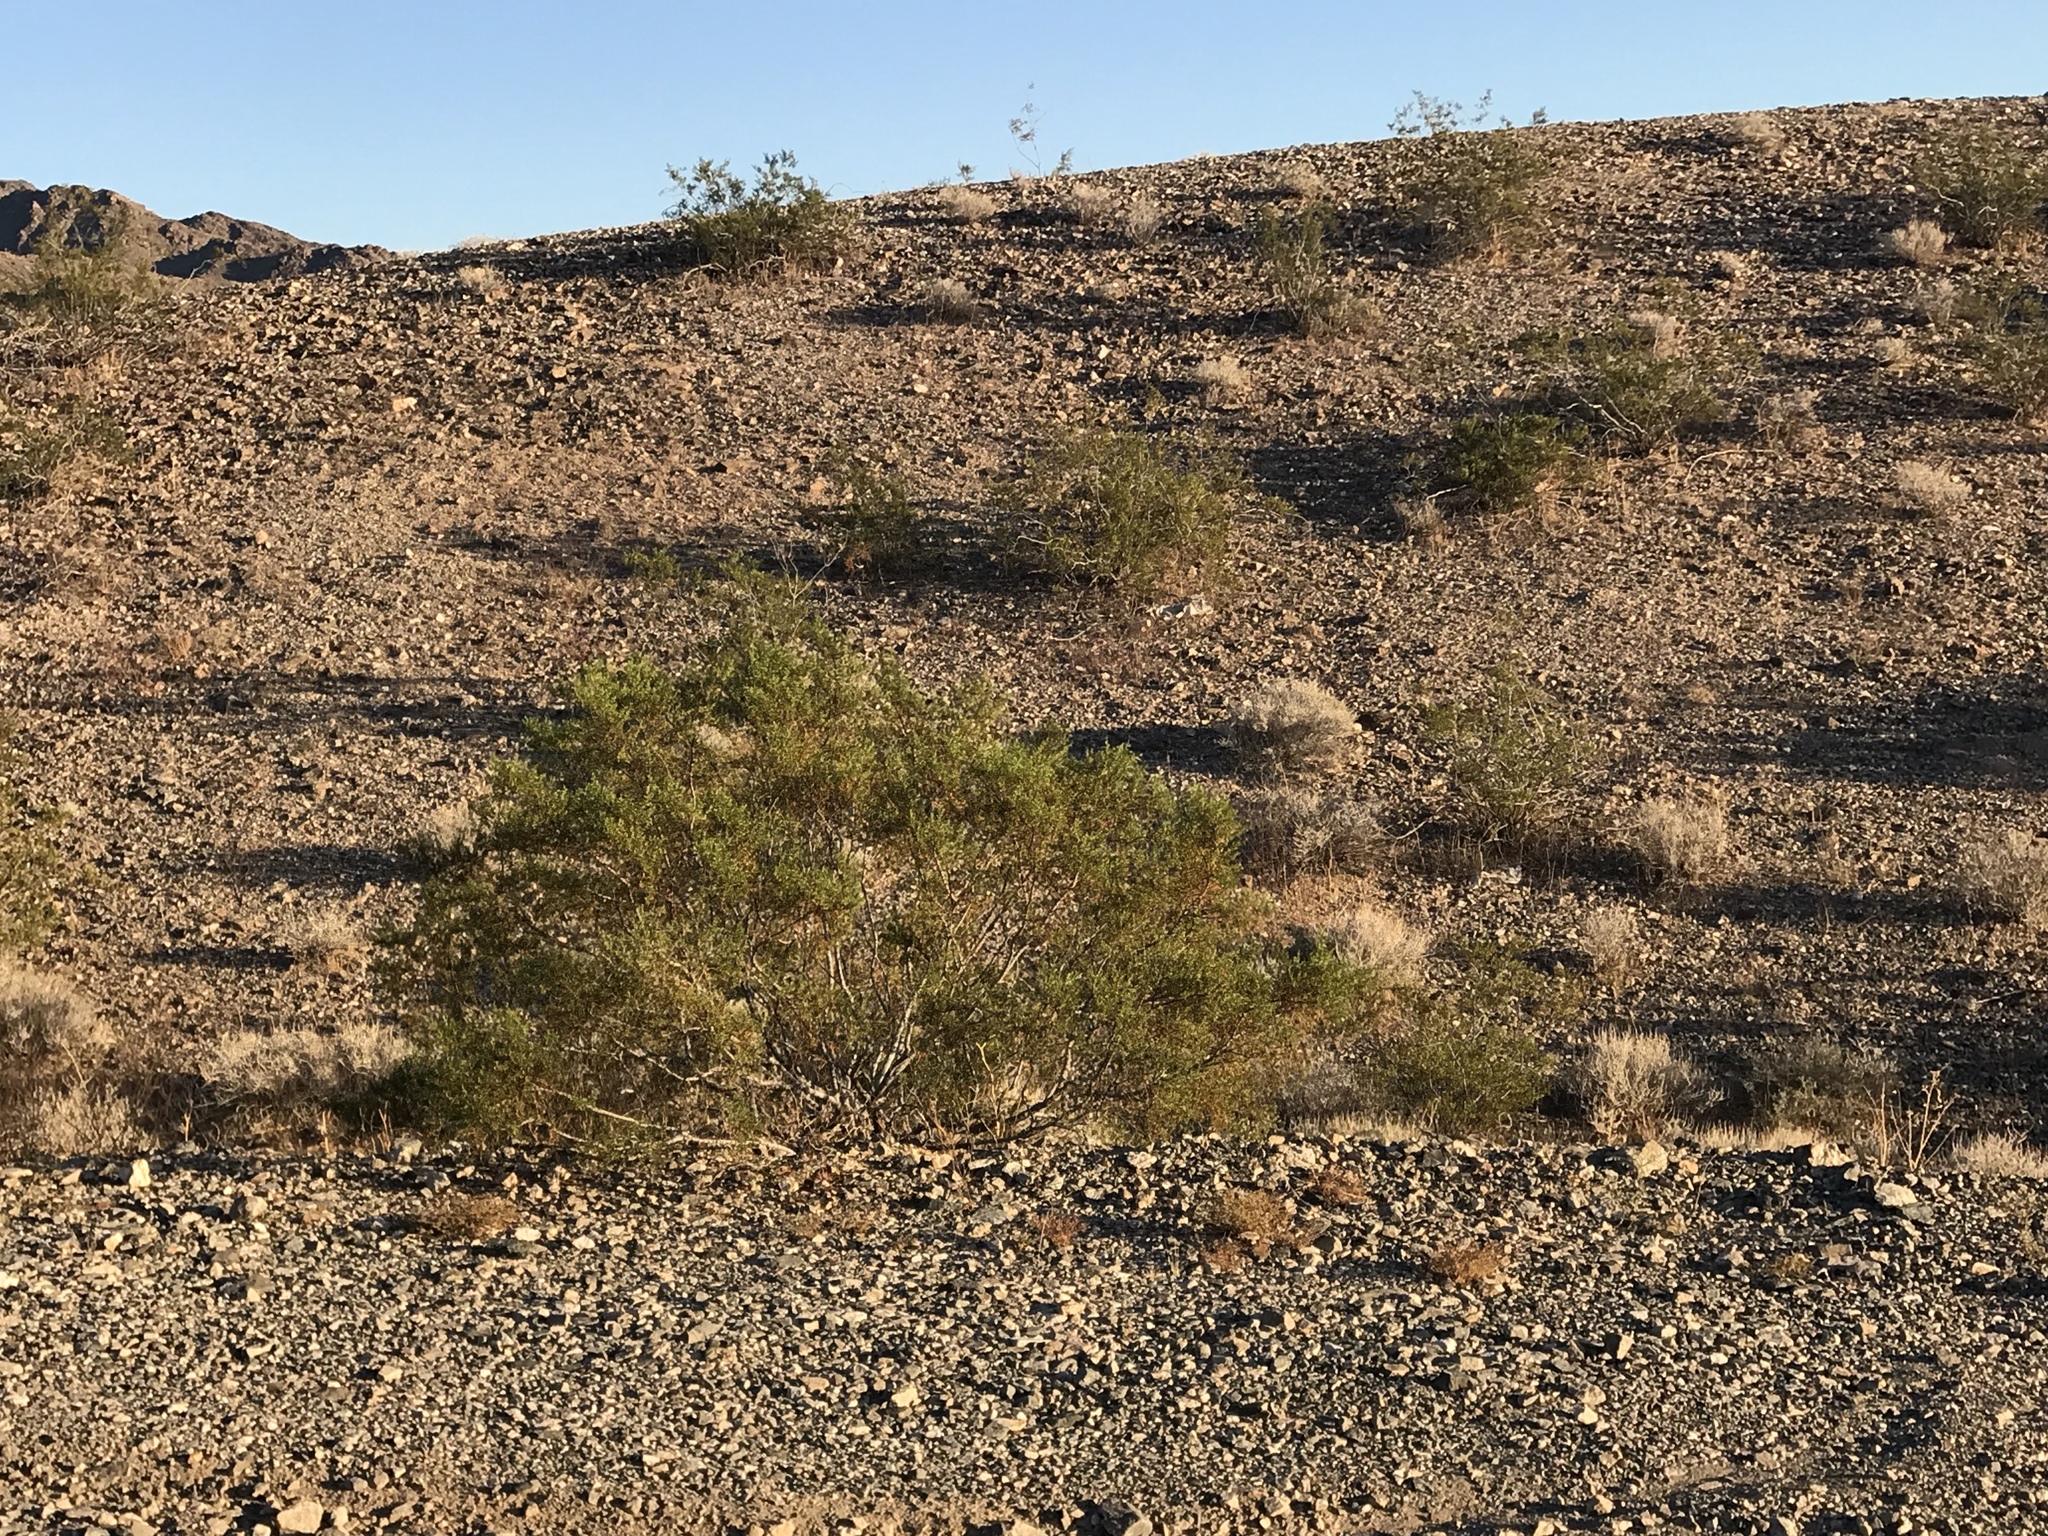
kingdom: Plantae
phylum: Tracheophyta
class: Magnoliopsida
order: Zygophyllales
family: Zygophyllaceae
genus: Larrea
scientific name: Larrea tridentata
